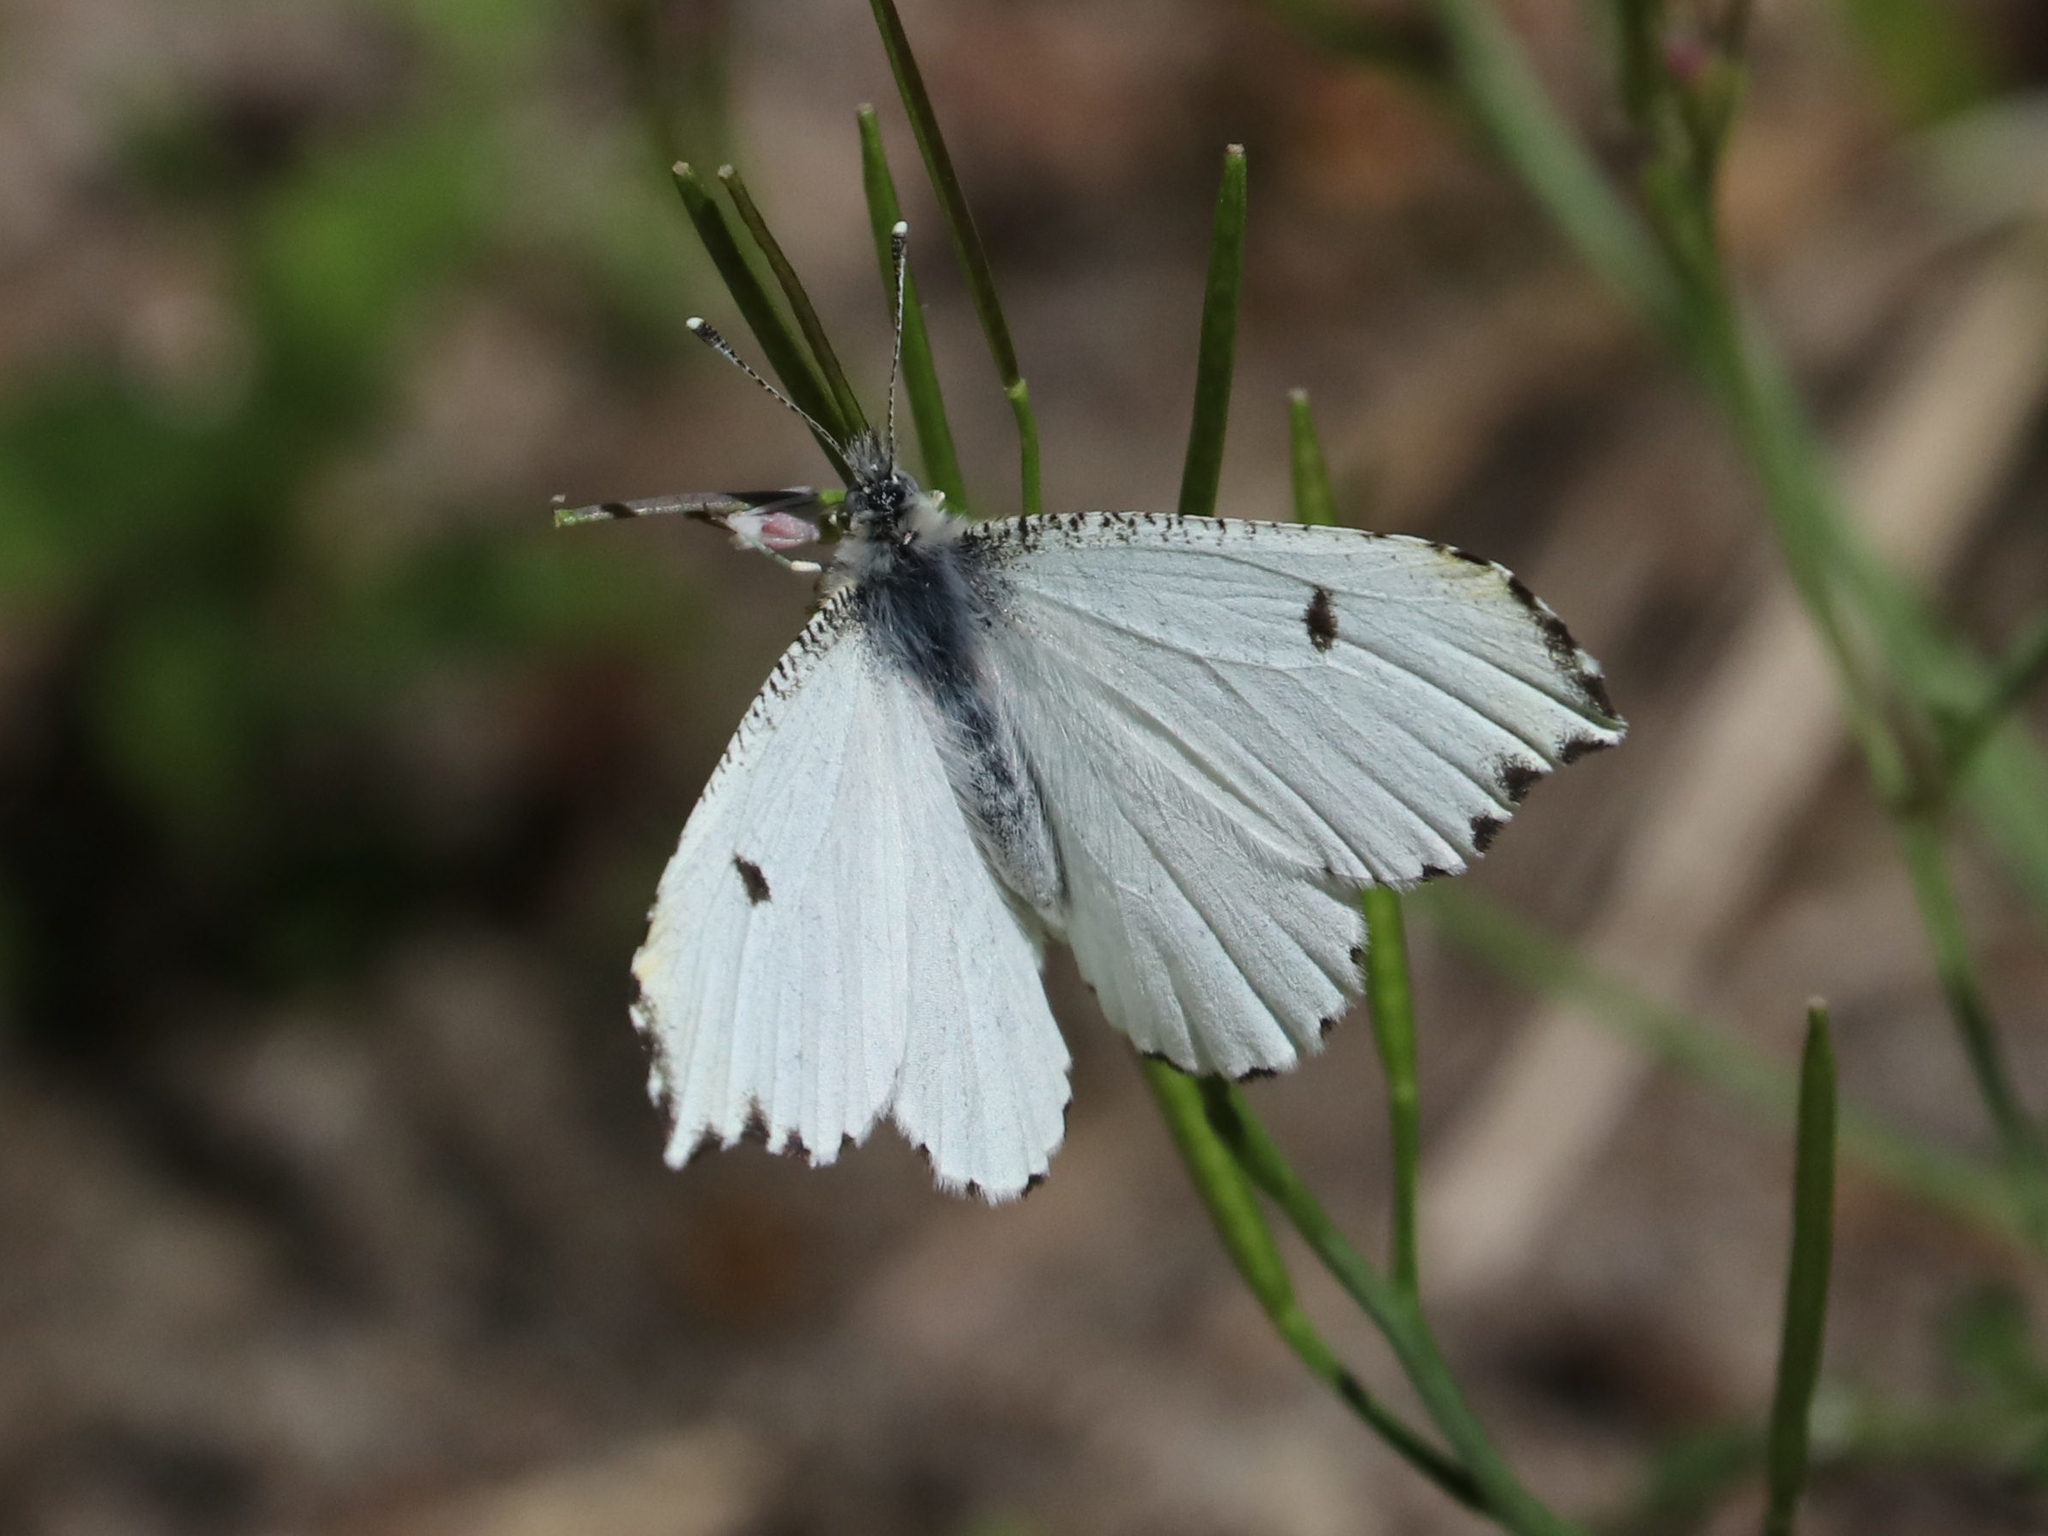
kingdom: Animalia
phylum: Arthropoda
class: Insecta
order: Lepidoptera
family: Pieridae
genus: Anthocharis
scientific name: Anthocharis midea
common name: Falcate orangetip
